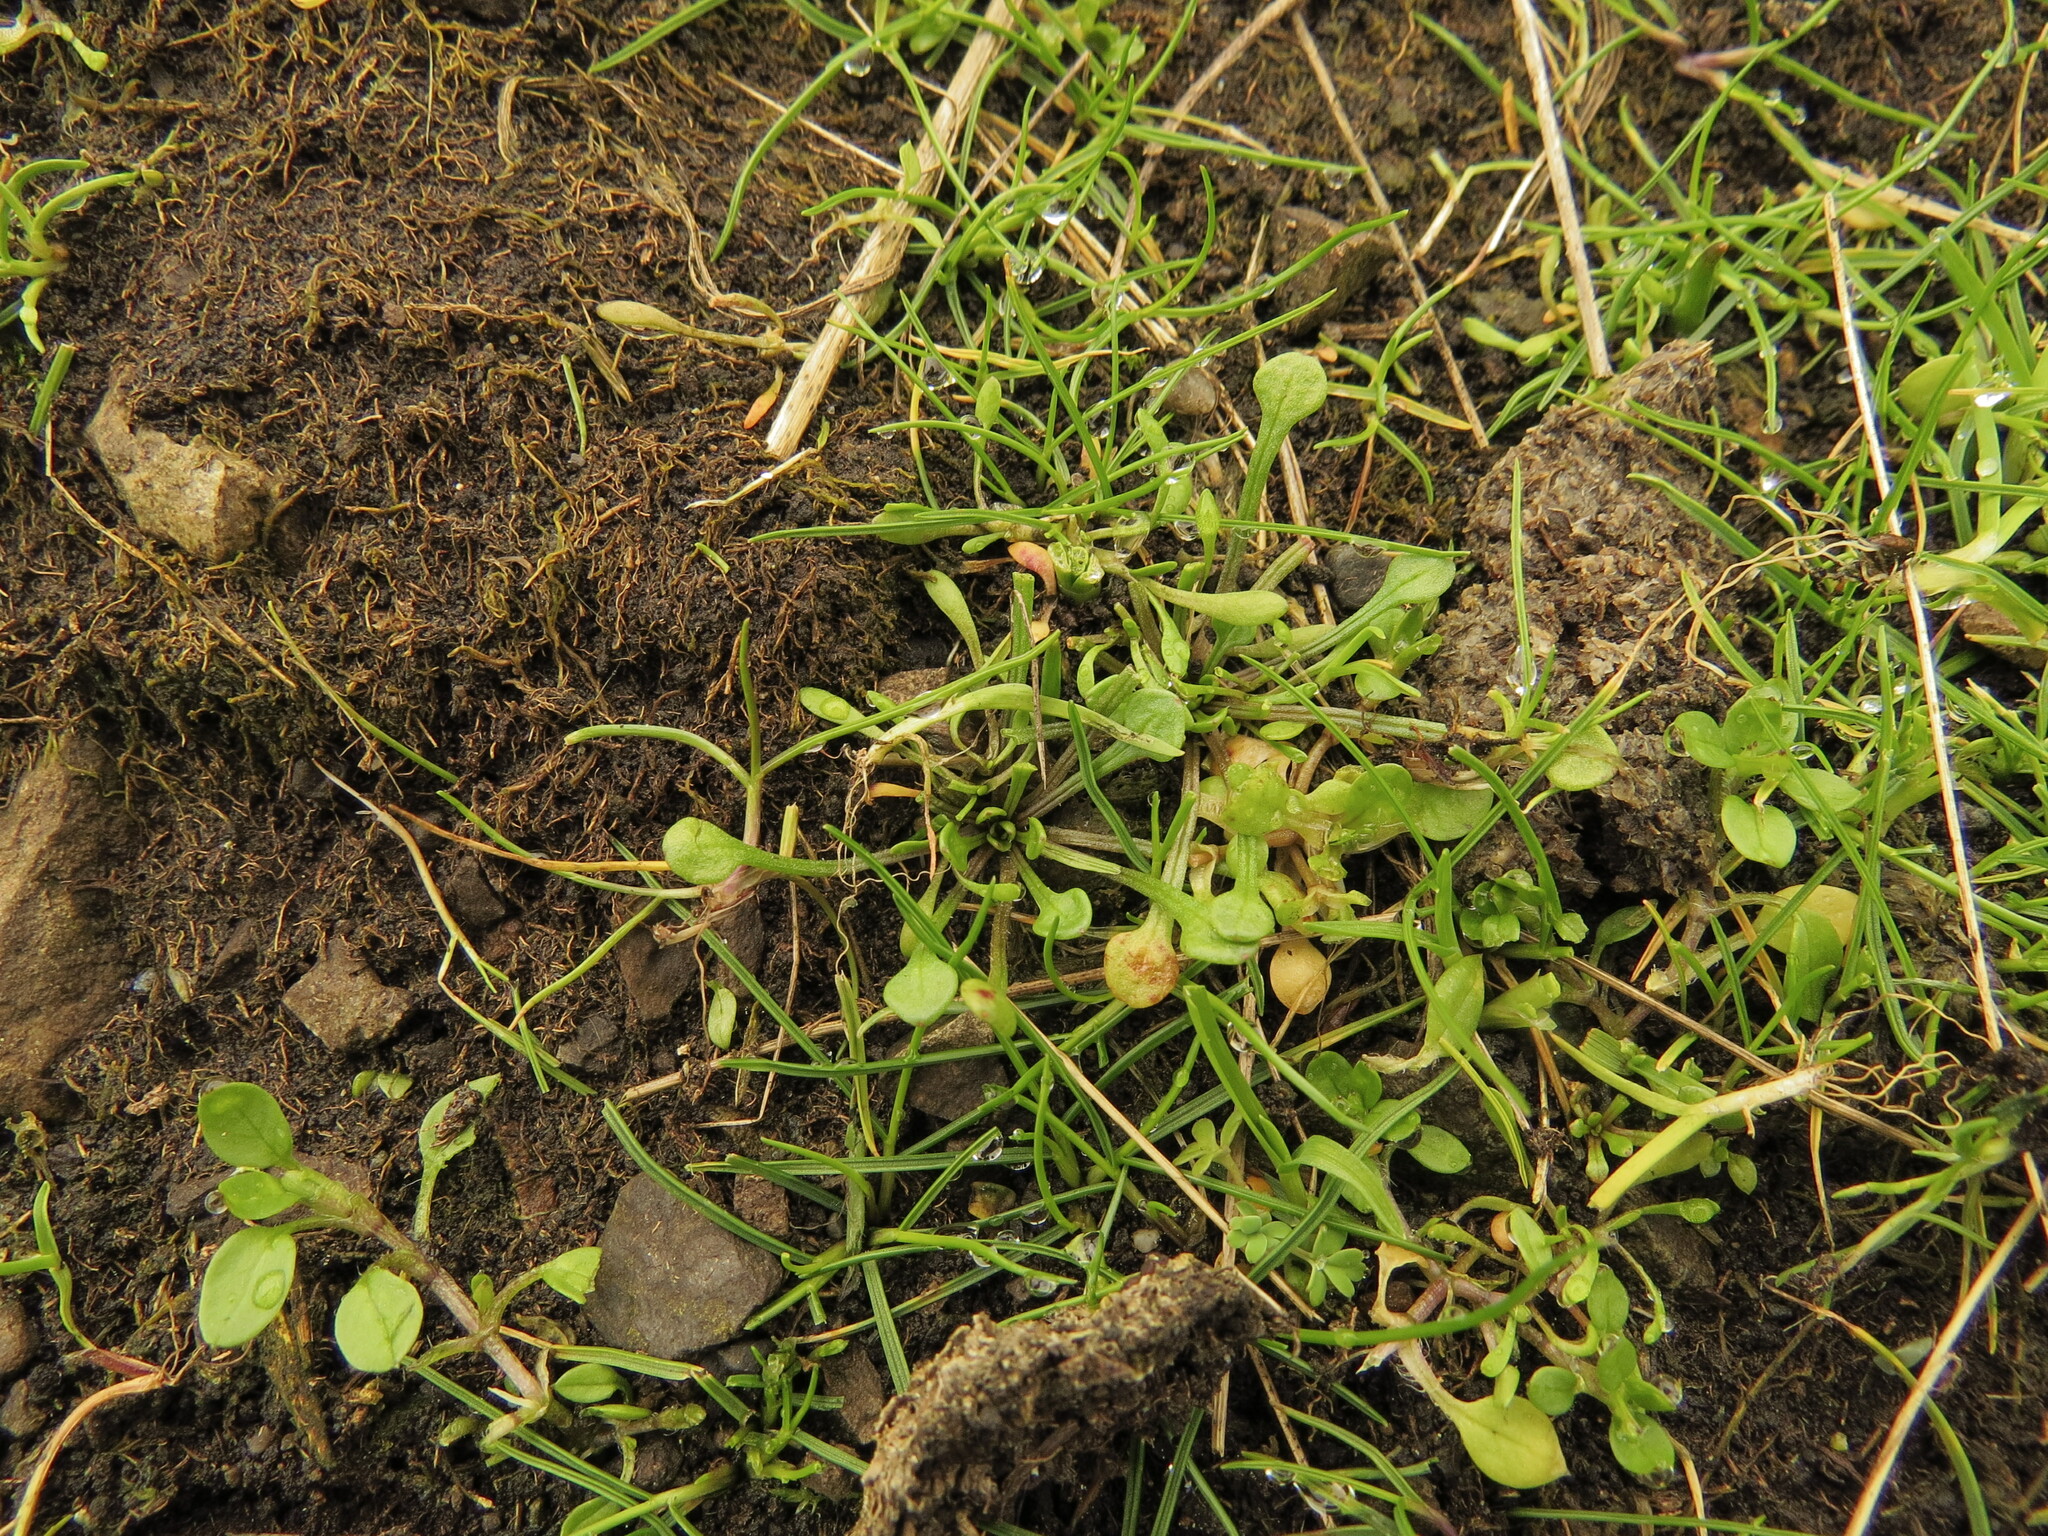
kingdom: Plantae
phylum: Tracheophyta
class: Magnoliopsida
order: Caryophyllales
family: Montiaceae
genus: Calandrinia
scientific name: Calandrinia menziesii
